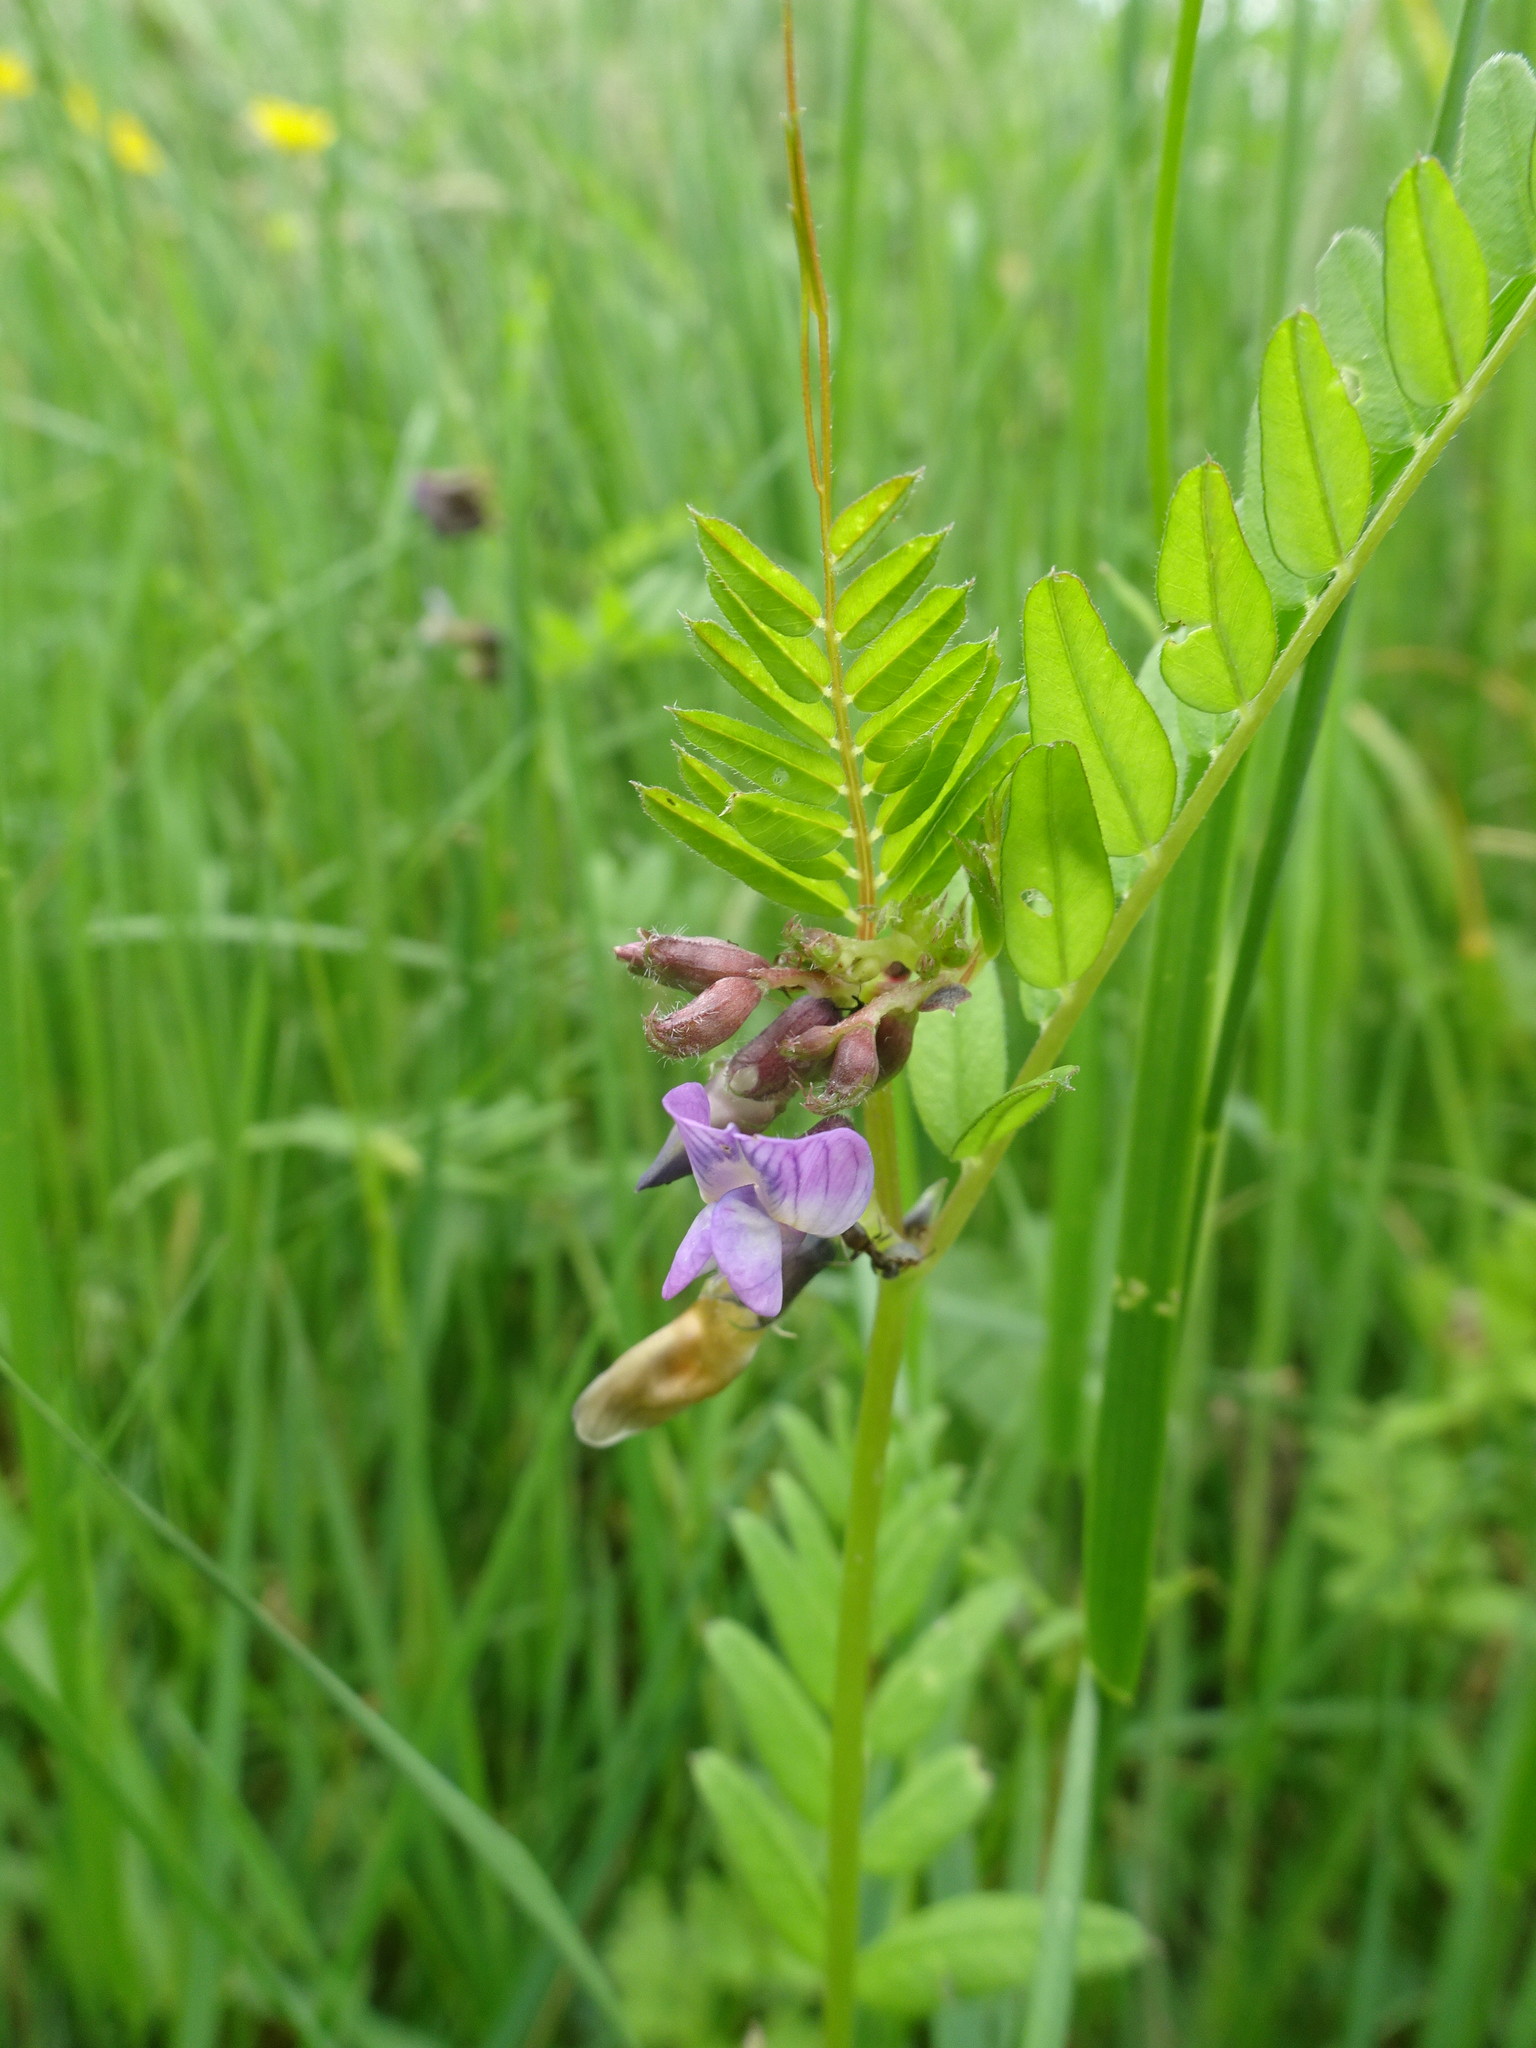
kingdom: Plantae
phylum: Tracheophyta
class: Magnoliopsida
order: Fabales
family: Fabaceae
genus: Vicia
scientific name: Vicia sepium
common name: Bush vetch
